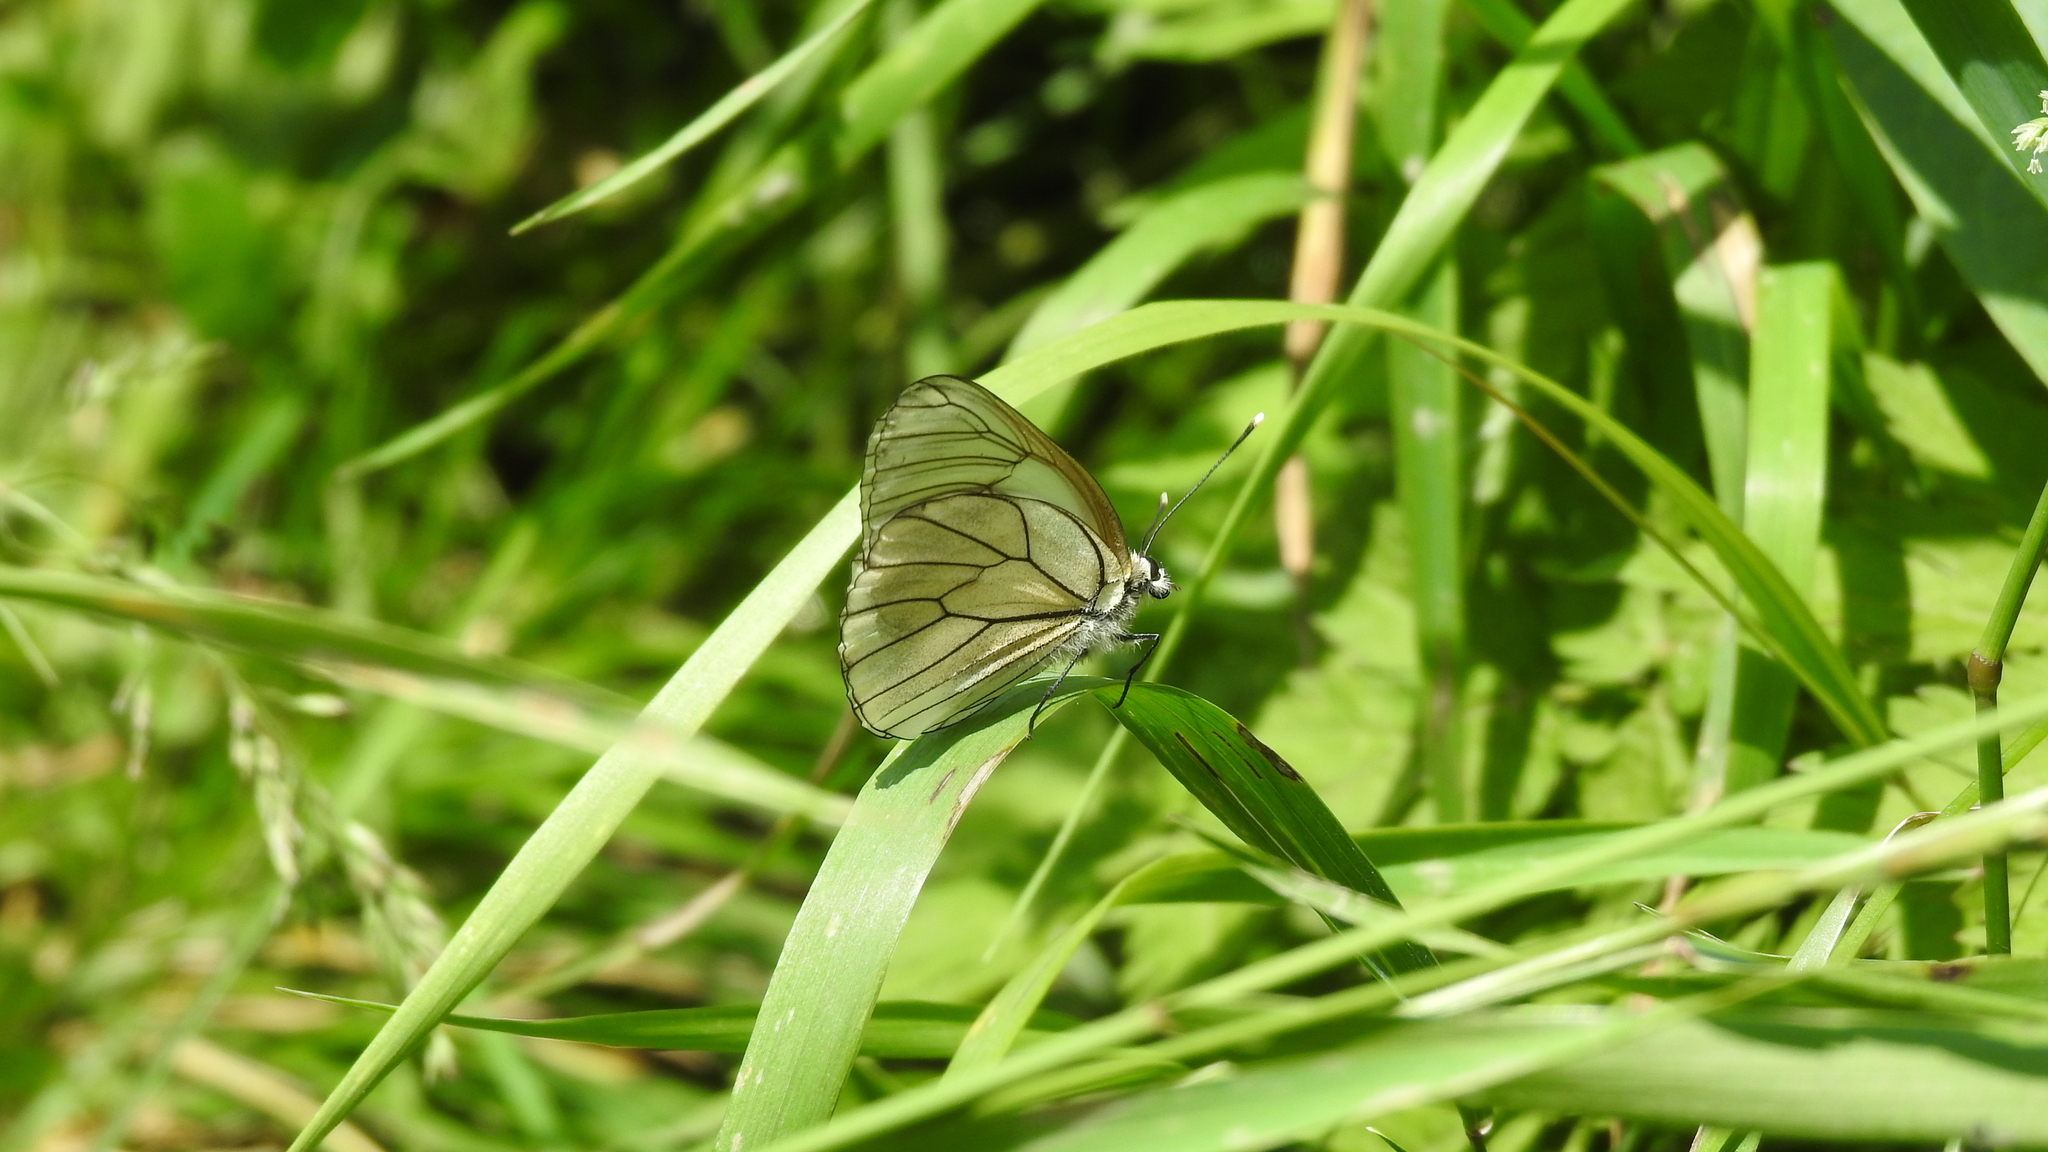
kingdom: Animalia
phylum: Arthropoda
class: Insecta
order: Lepidoptera
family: Pieridae
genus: Aporia
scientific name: Aporia crataegi
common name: Black-veined white
